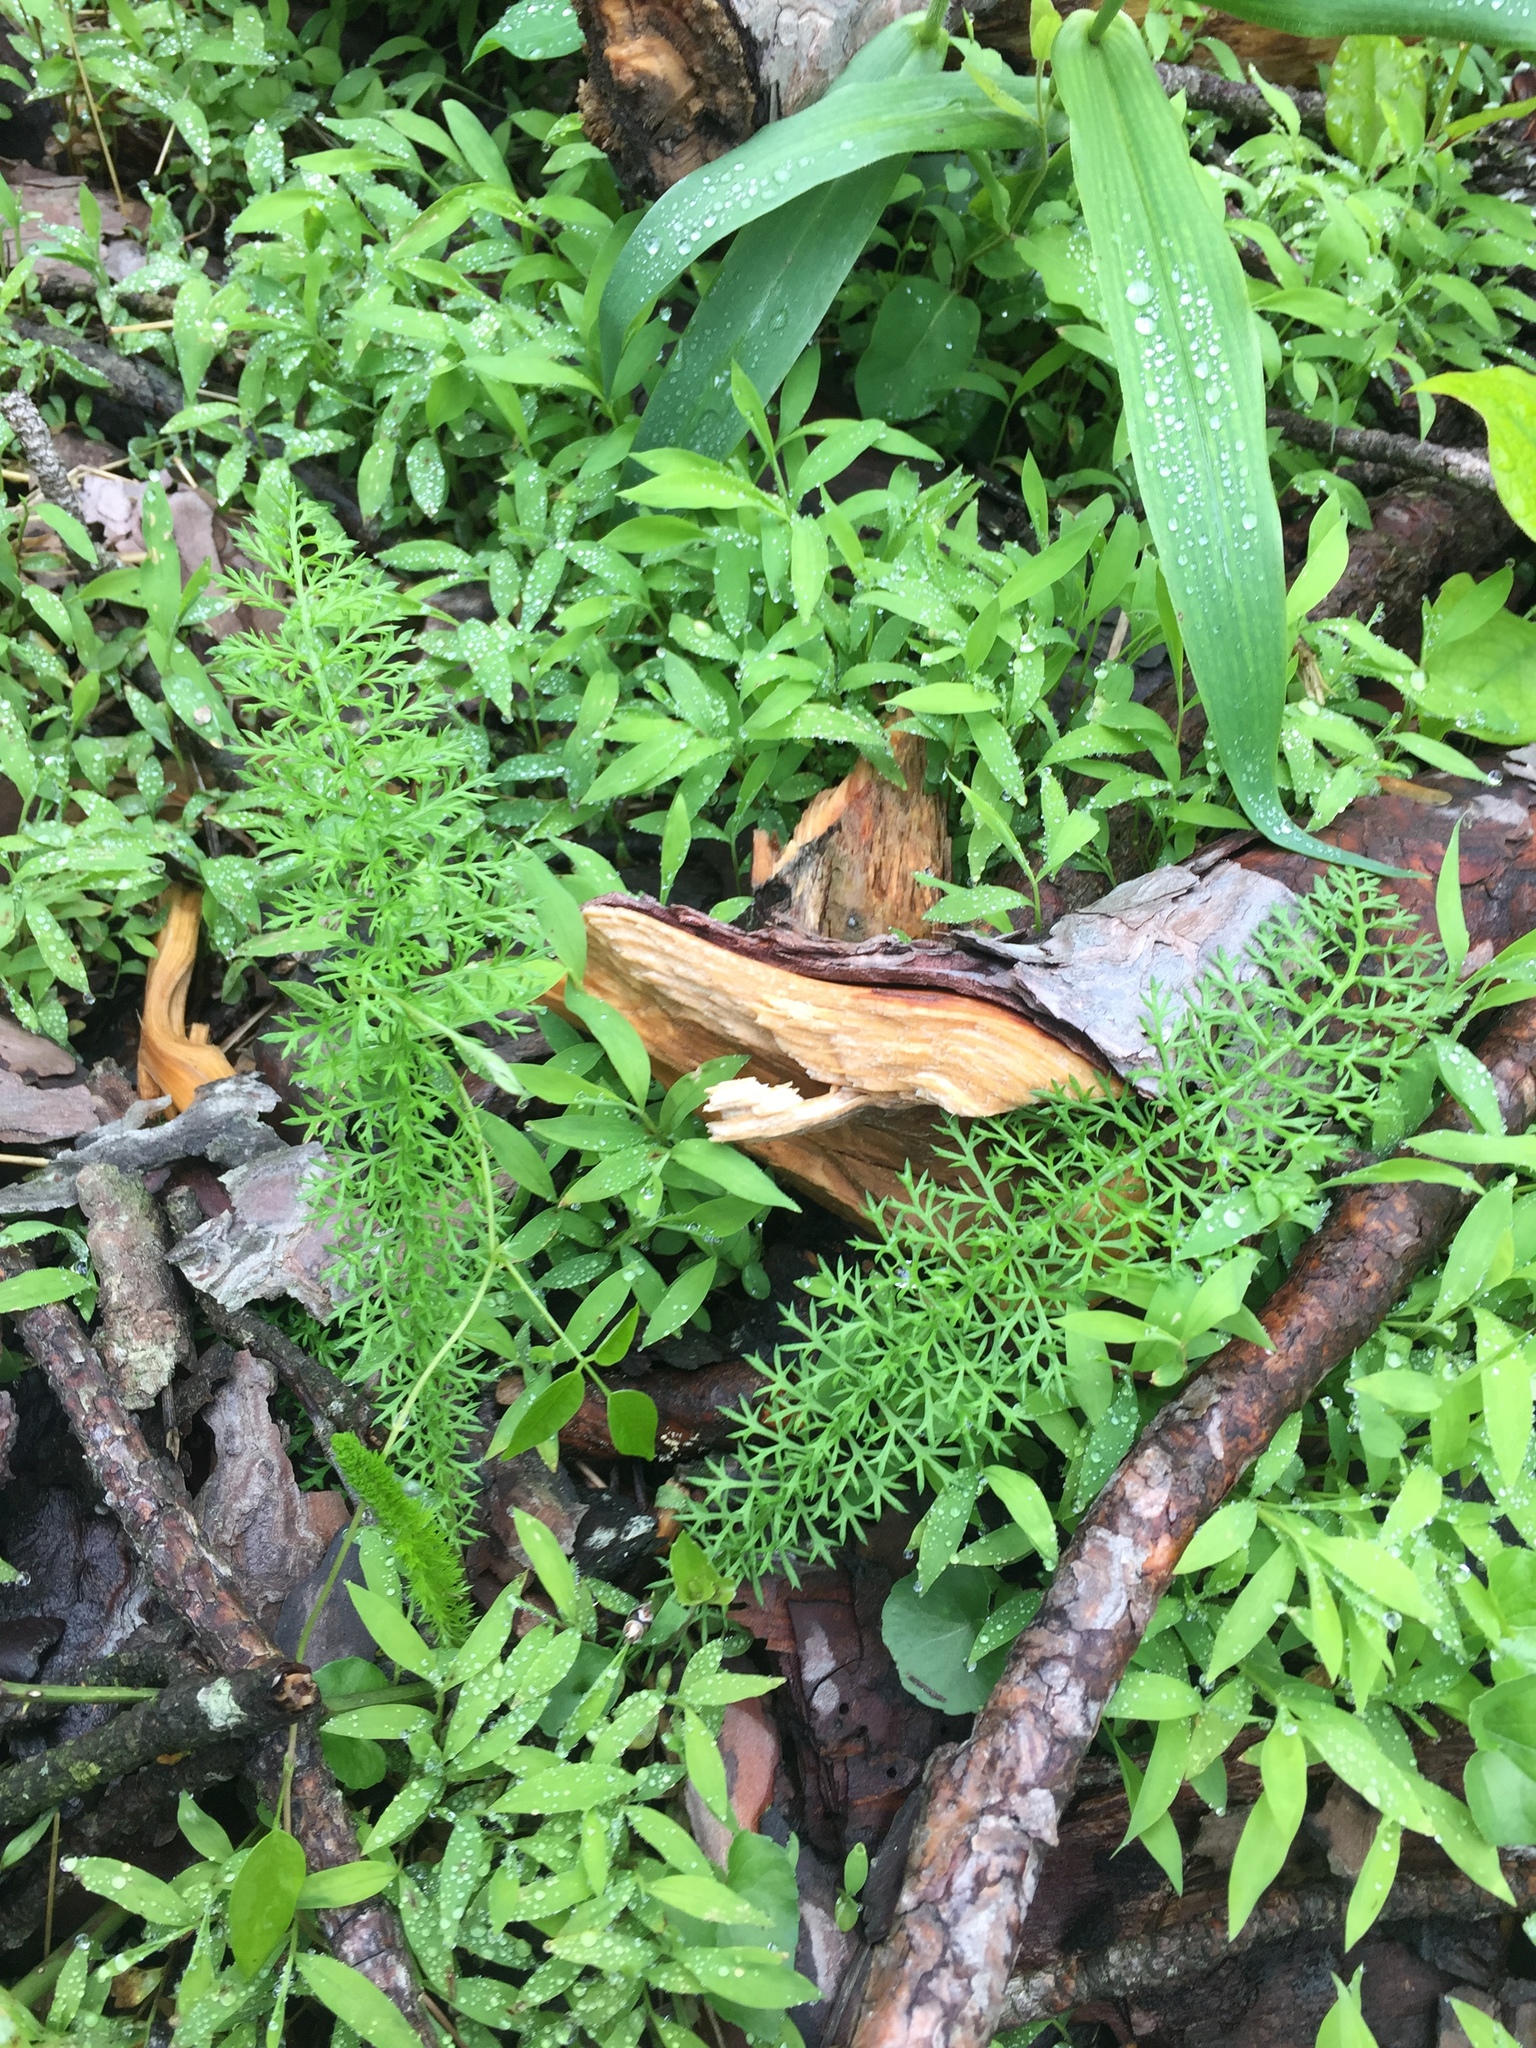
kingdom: Plantae
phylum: Tracheophyta
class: Magnoliopsida
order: Asterales
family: Asteraceae
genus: Achillea
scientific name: Achillea millefolium
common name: Yarrow
